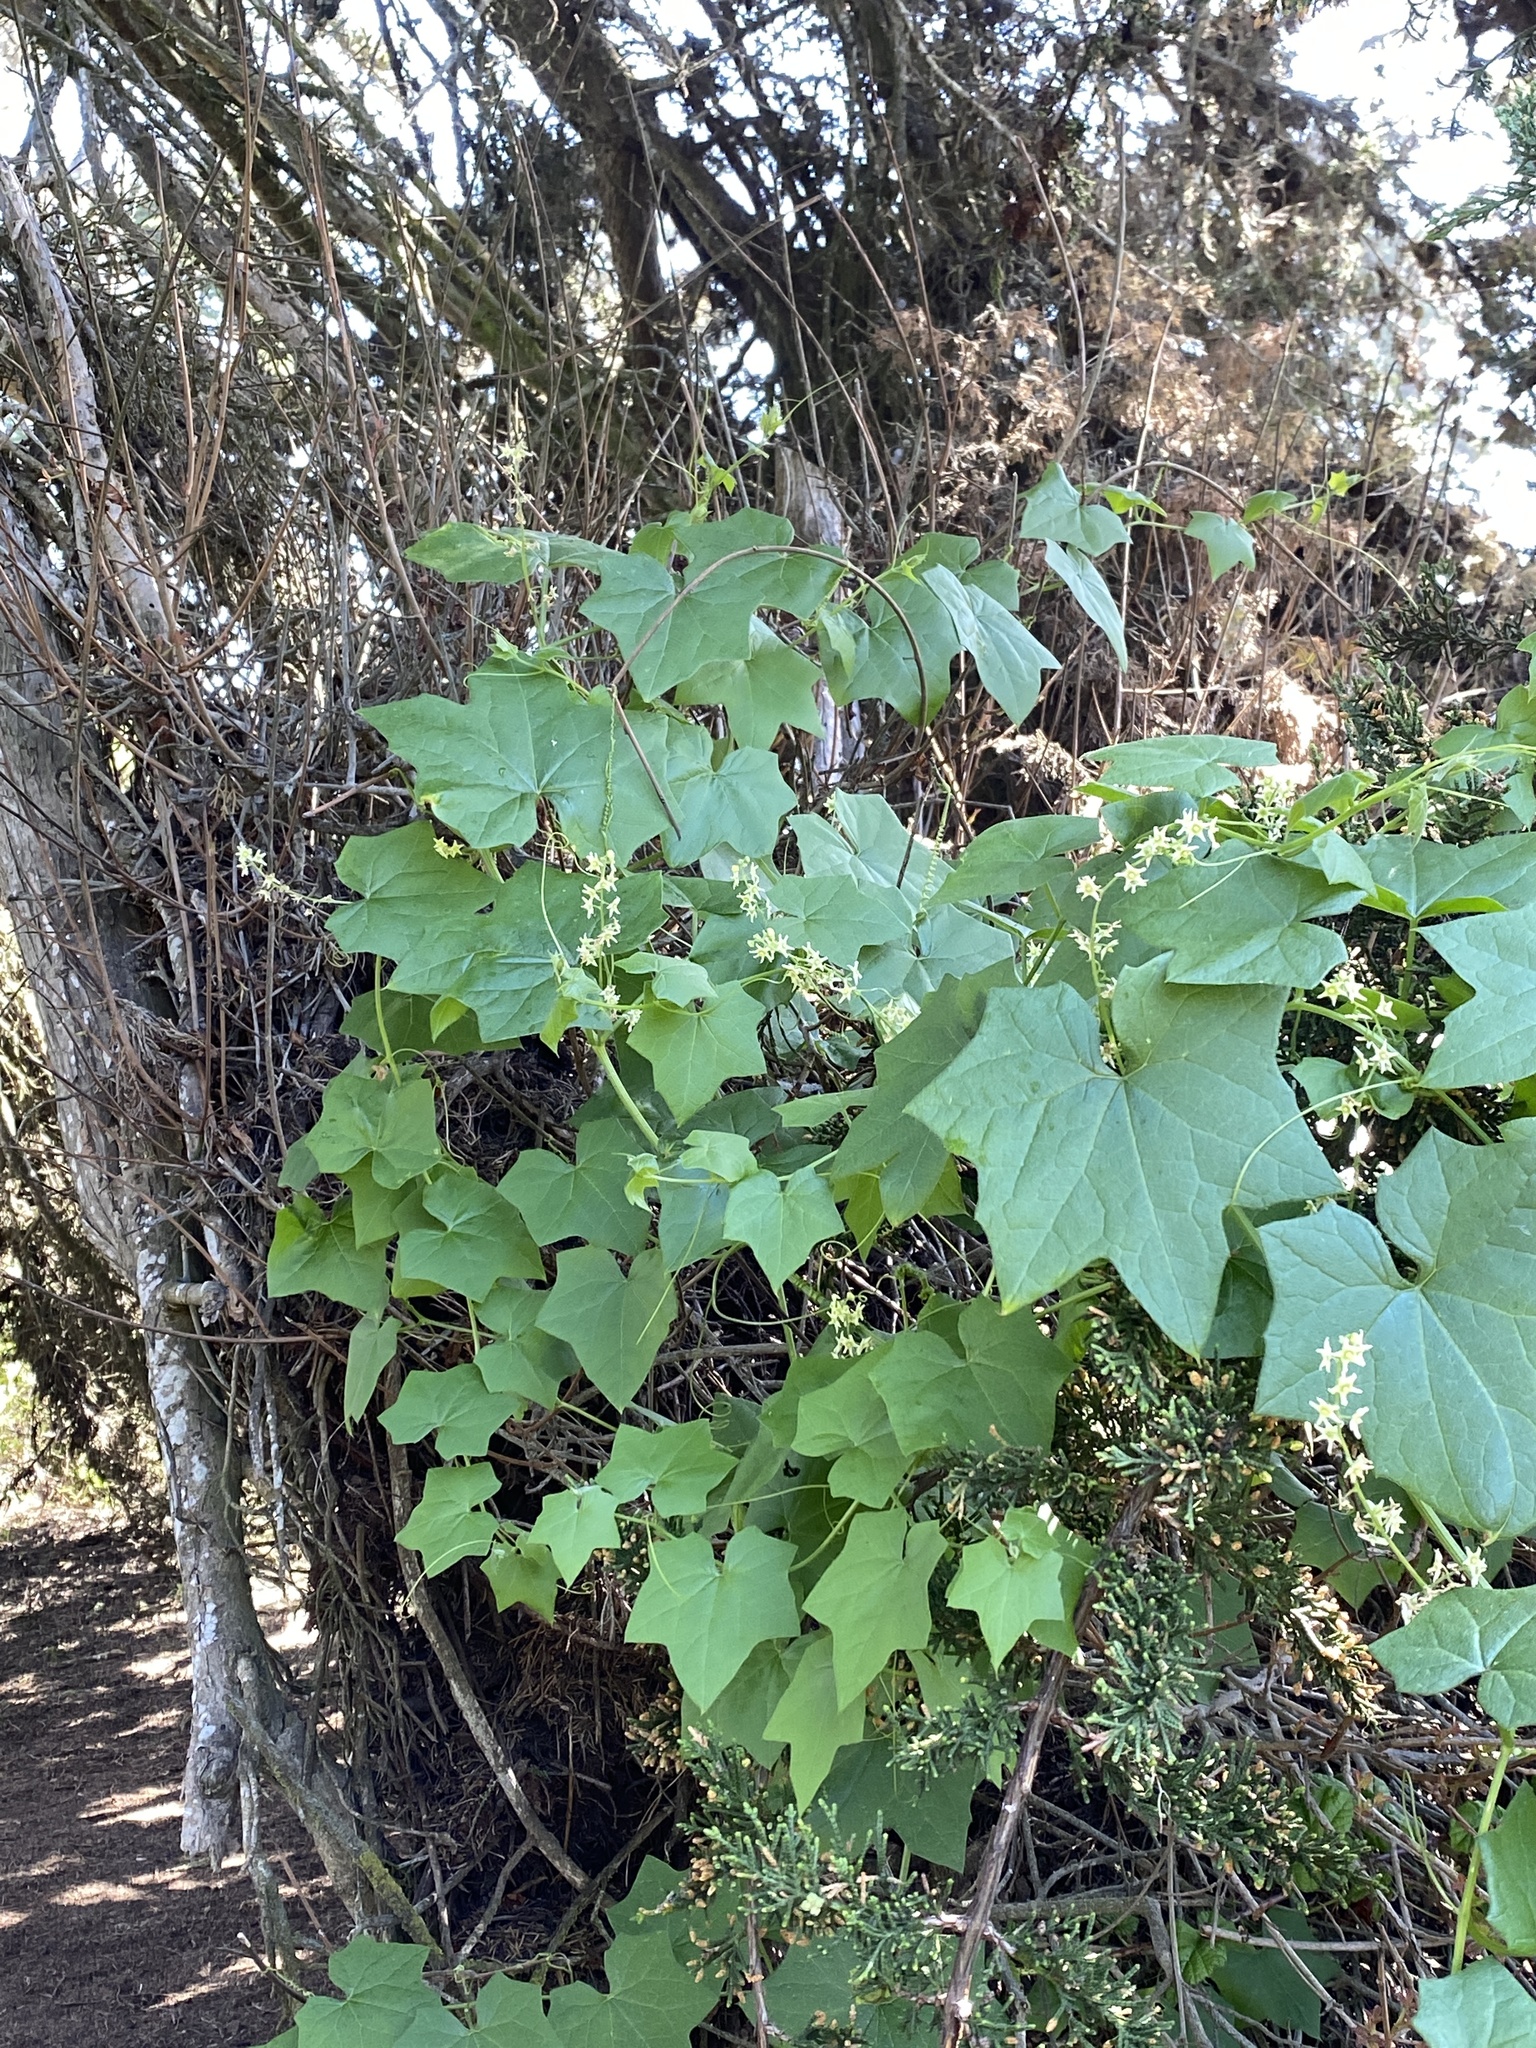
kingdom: Plantae
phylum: Tracheophyta
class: Magnoliopsida
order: Cucurbitales
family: Cucurbitaceae
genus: Marah
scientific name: Marah fabacea
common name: California manroot
